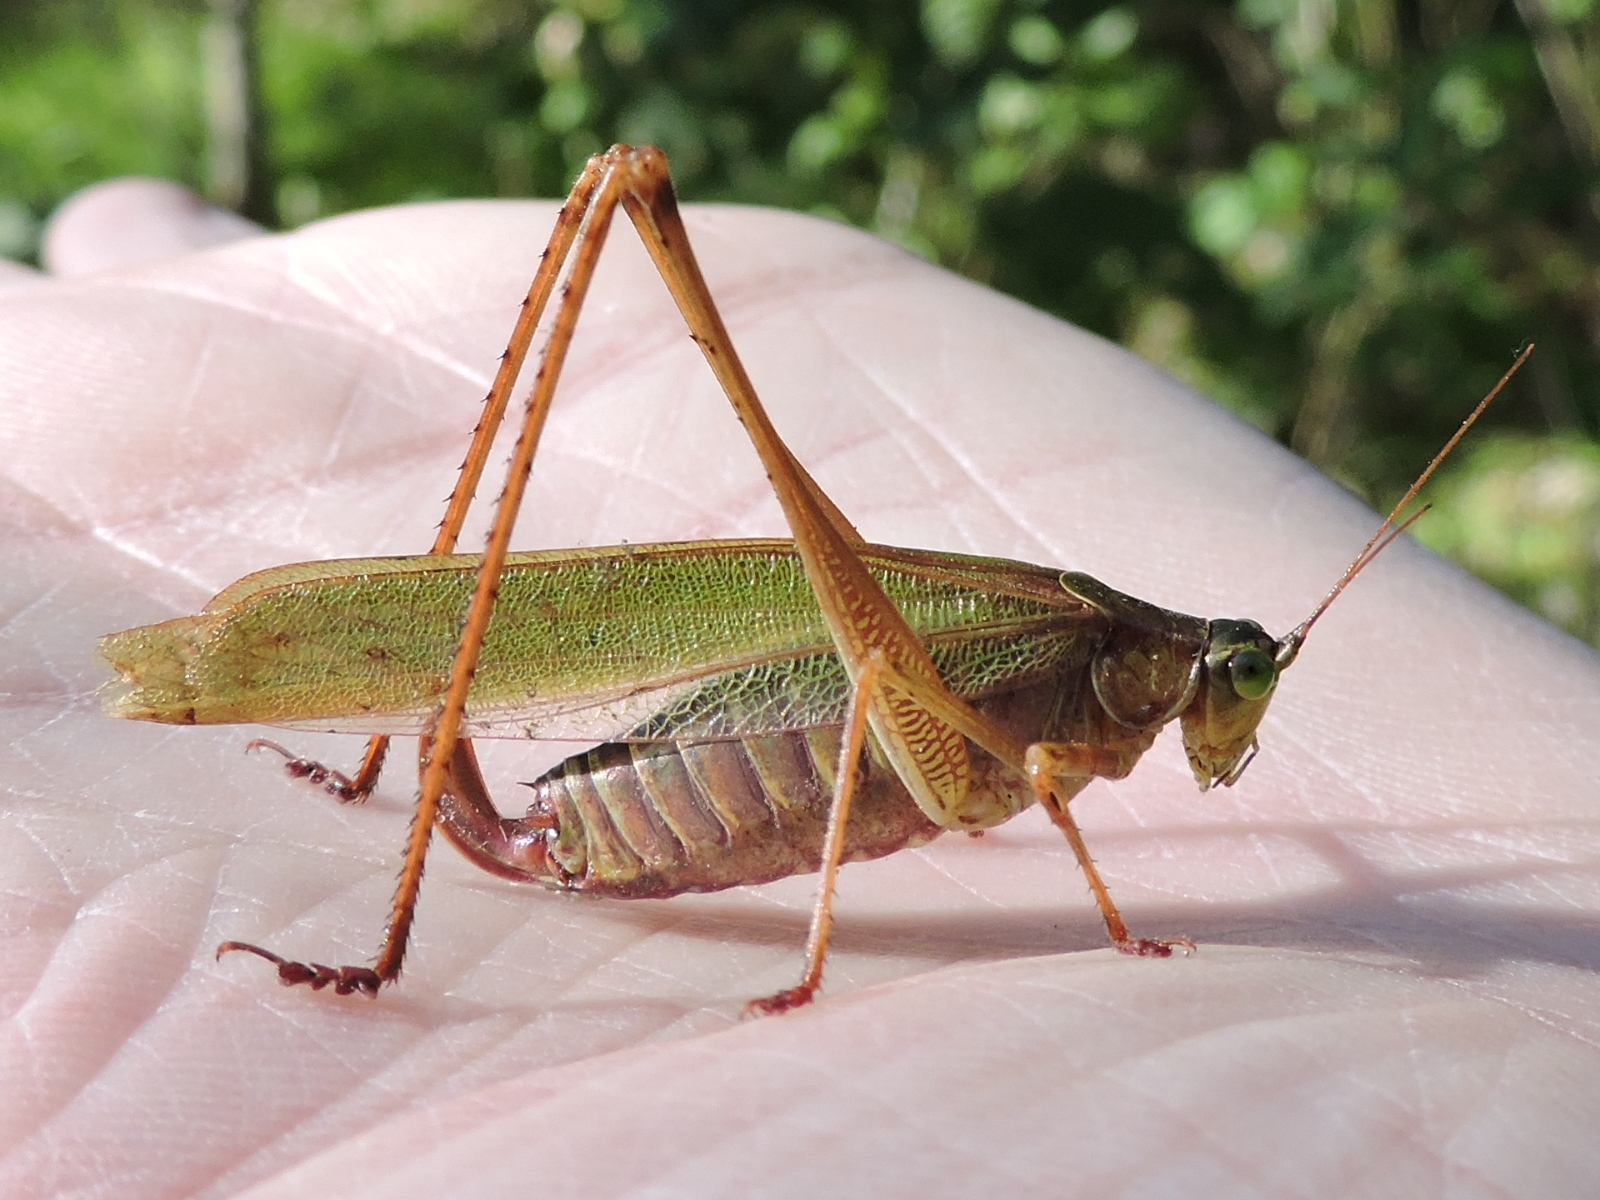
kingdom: Animalia
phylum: Arthropoda
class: Insecta
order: Orthoptera
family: Tettigoniidae
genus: Scudderia
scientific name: Scudderia furcata
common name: Fork-tailed bush katydid
